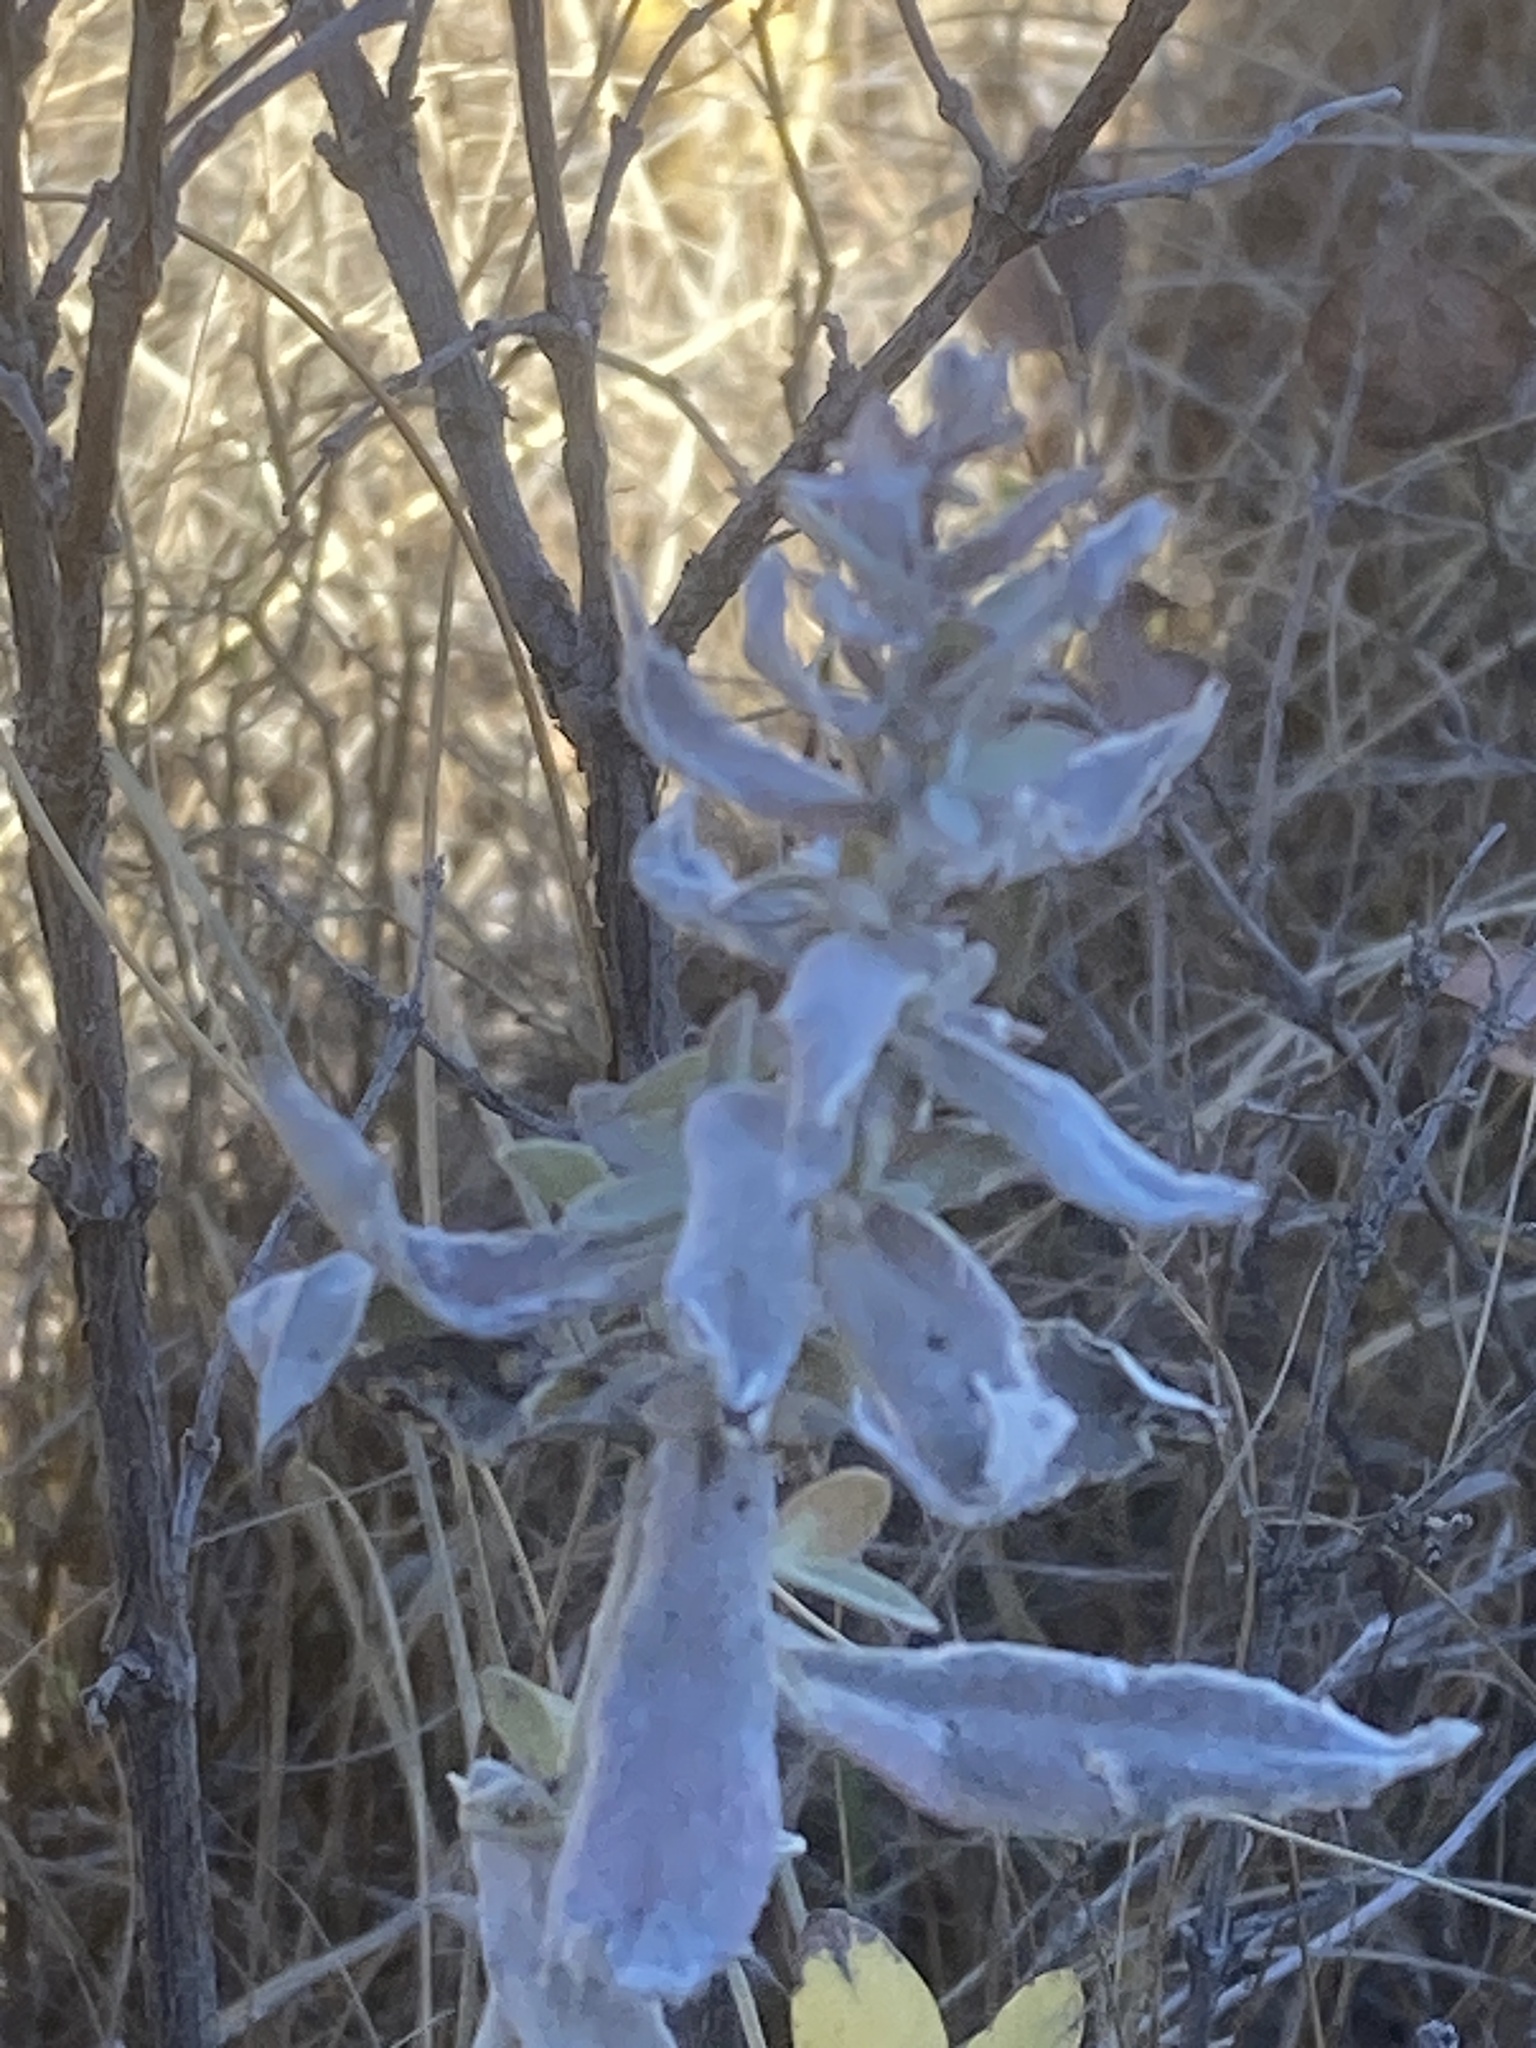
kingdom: Plantae
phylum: Tracheophyta
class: Magnoliopsida
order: Asterales
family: Asteraceae
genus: Artemisia
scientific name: Artemisia ludoviciana
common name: Western mugwort
